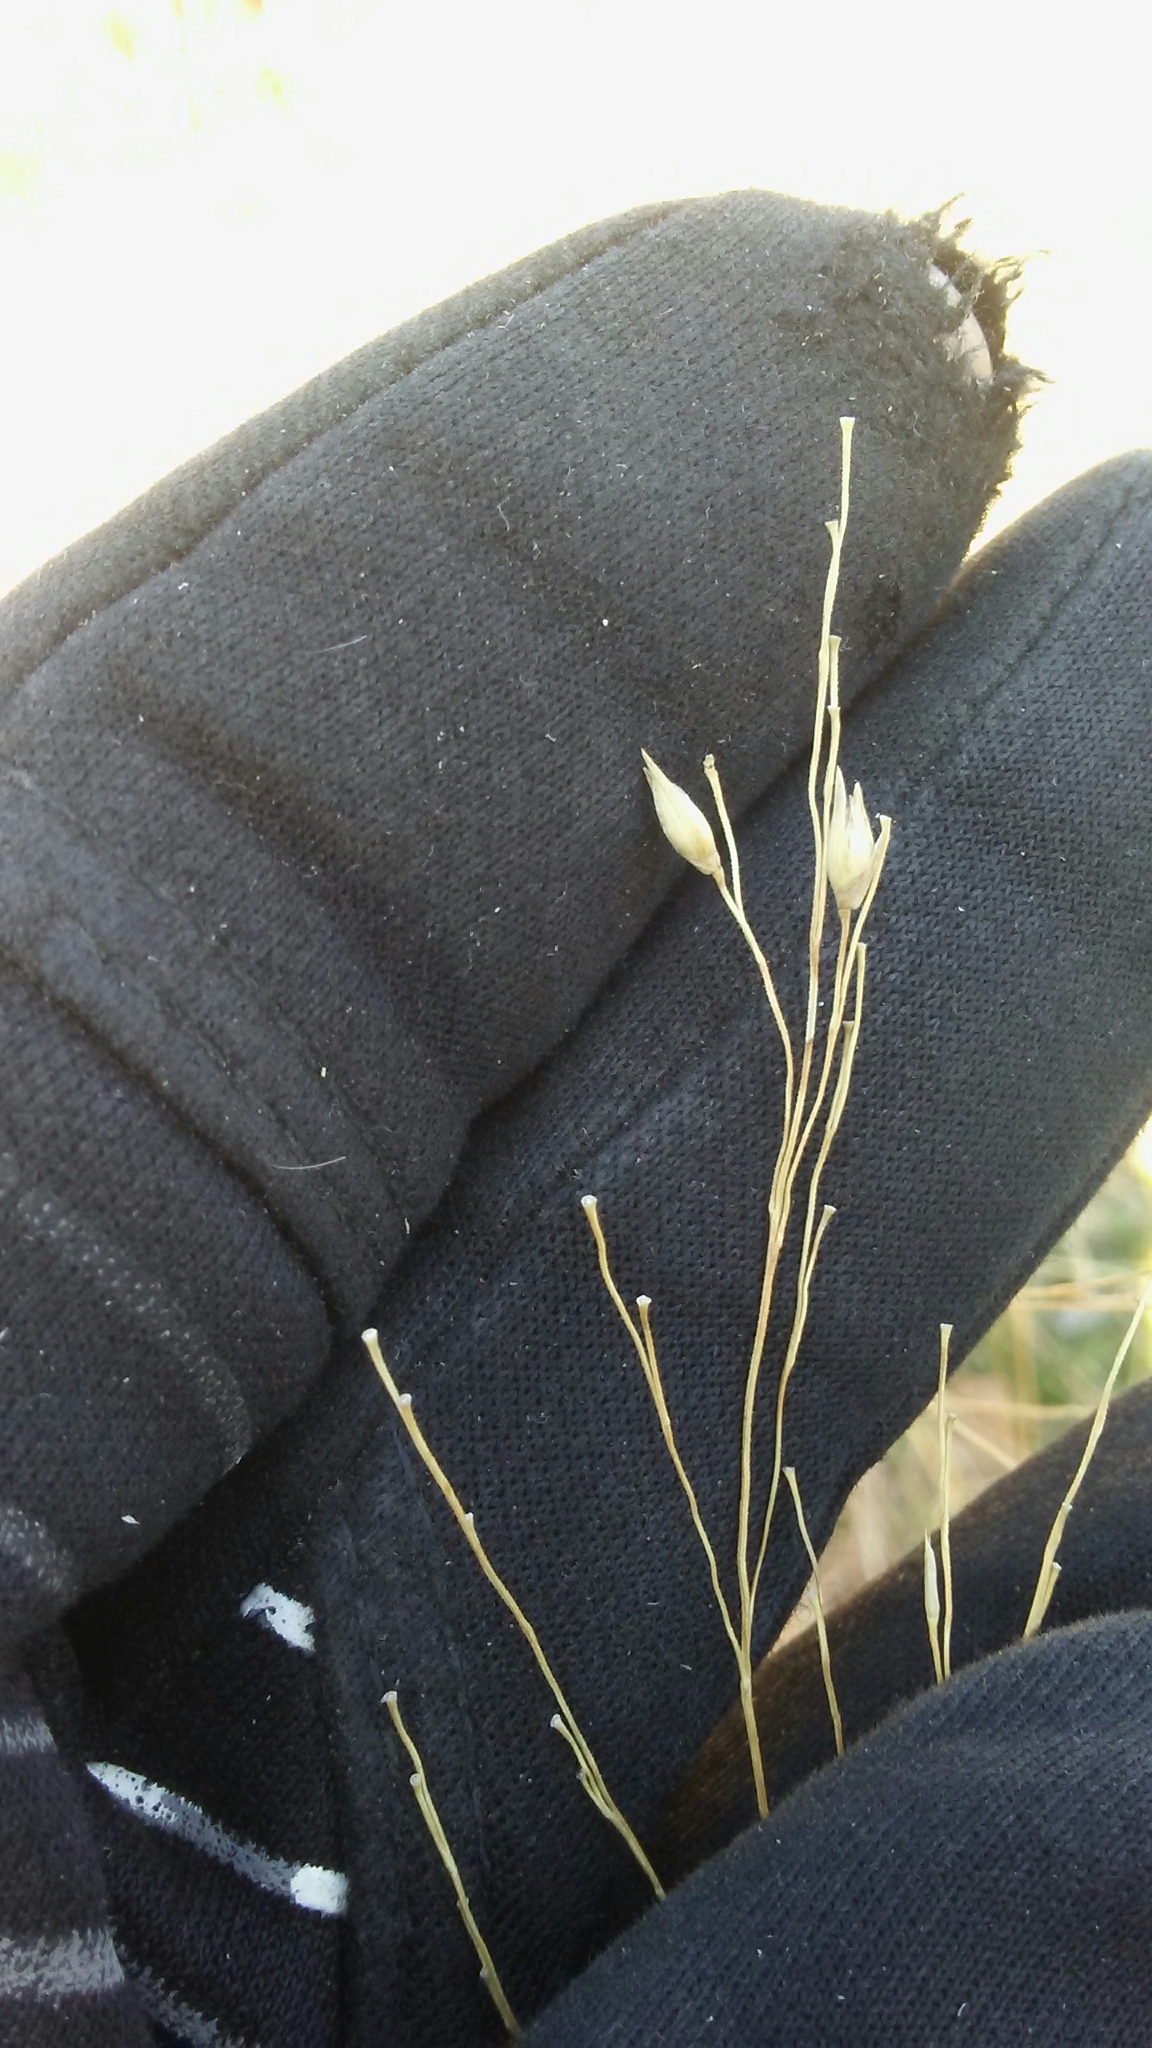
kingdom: Plantae
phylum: Tracheophyta
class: Liliopsida
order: Poales
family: Poaceae
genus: Panicum
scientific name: Panicum virgatum
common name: Switchgrass
